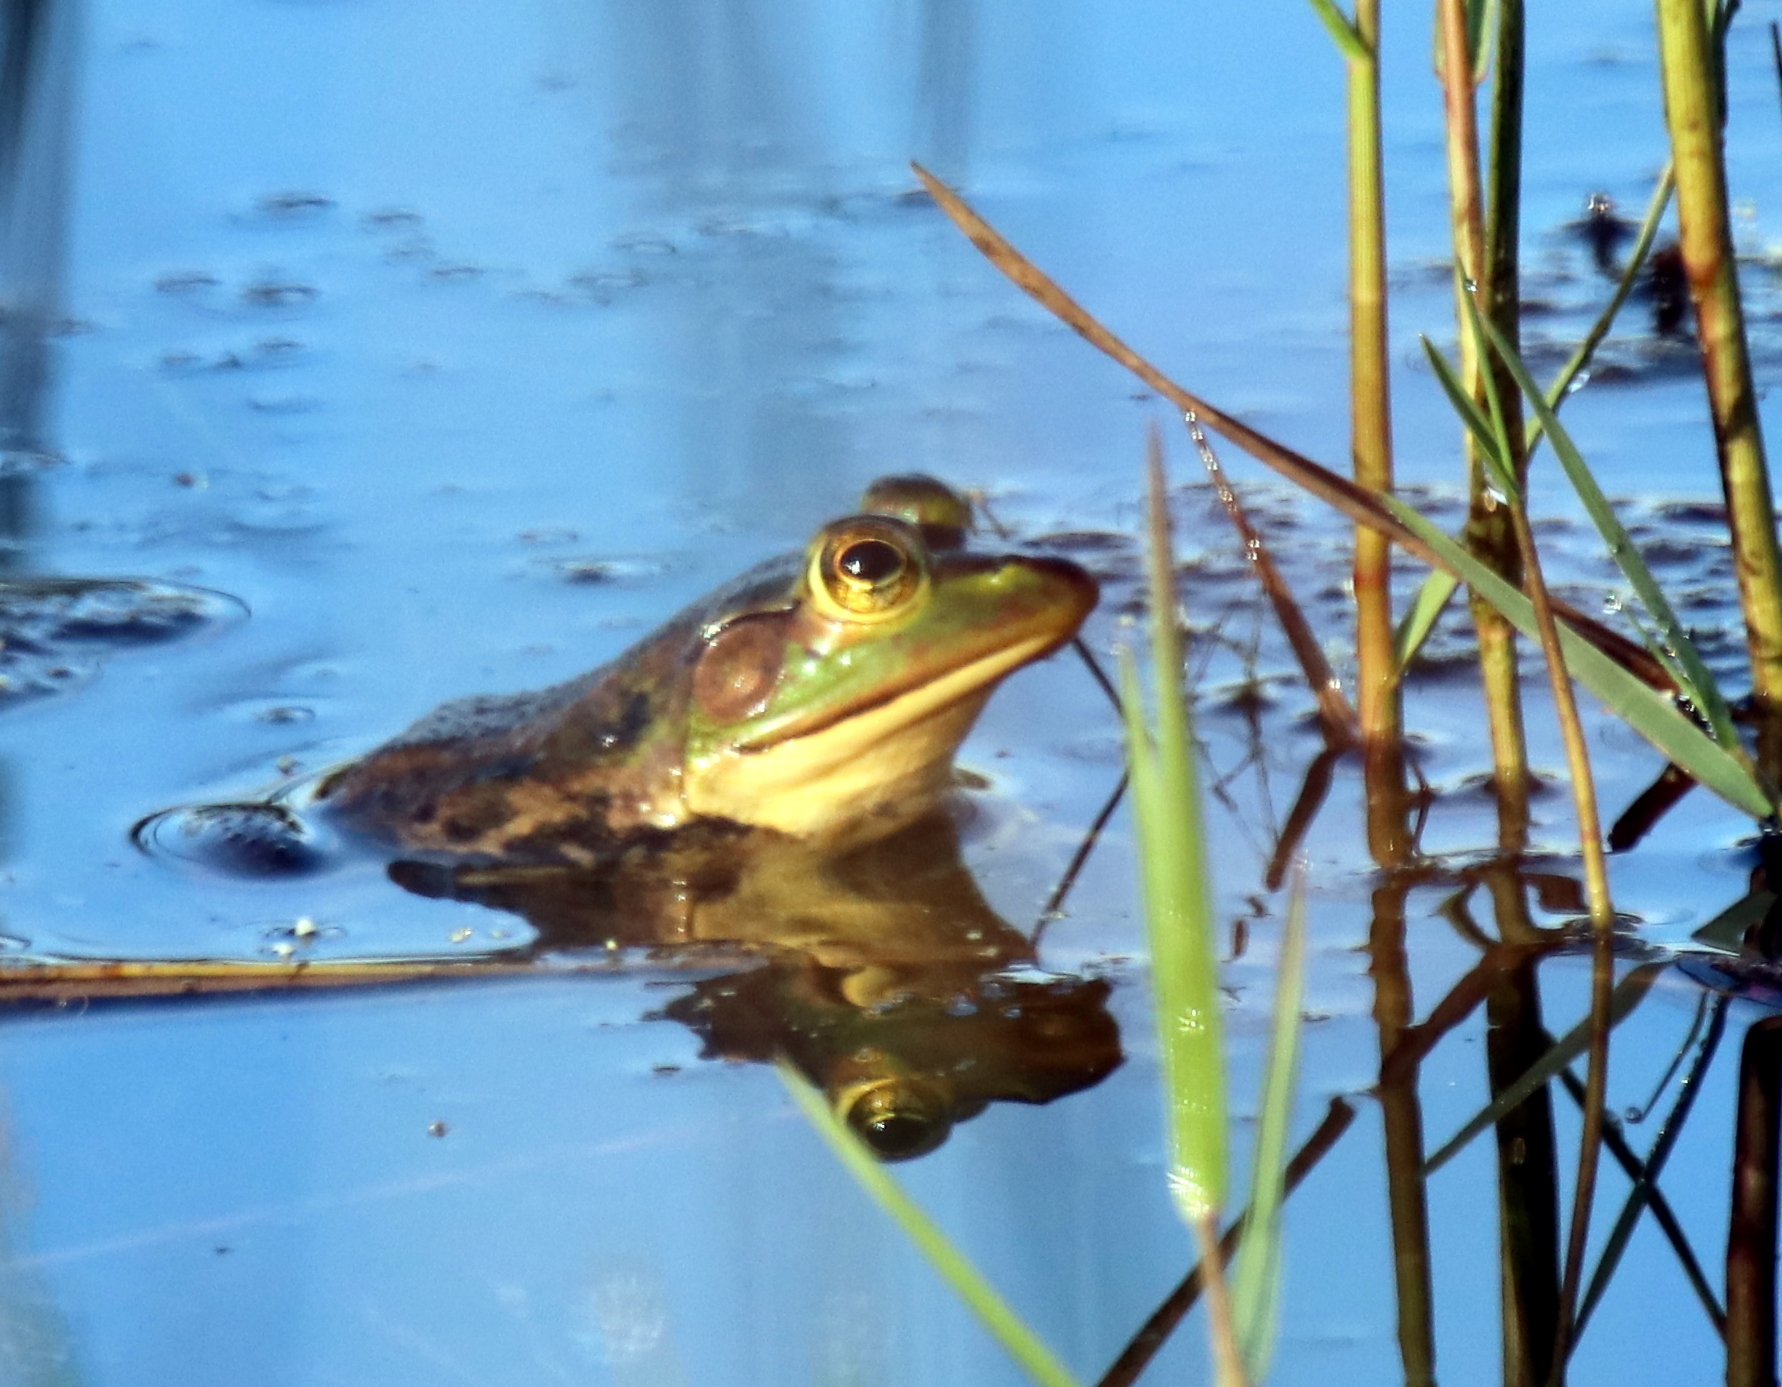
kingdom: Animalia
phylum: Chordata
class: Amphibia
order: Anura
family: Ranidae
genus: Lithobates
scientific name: Lithobates grylio
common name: Pig frog
